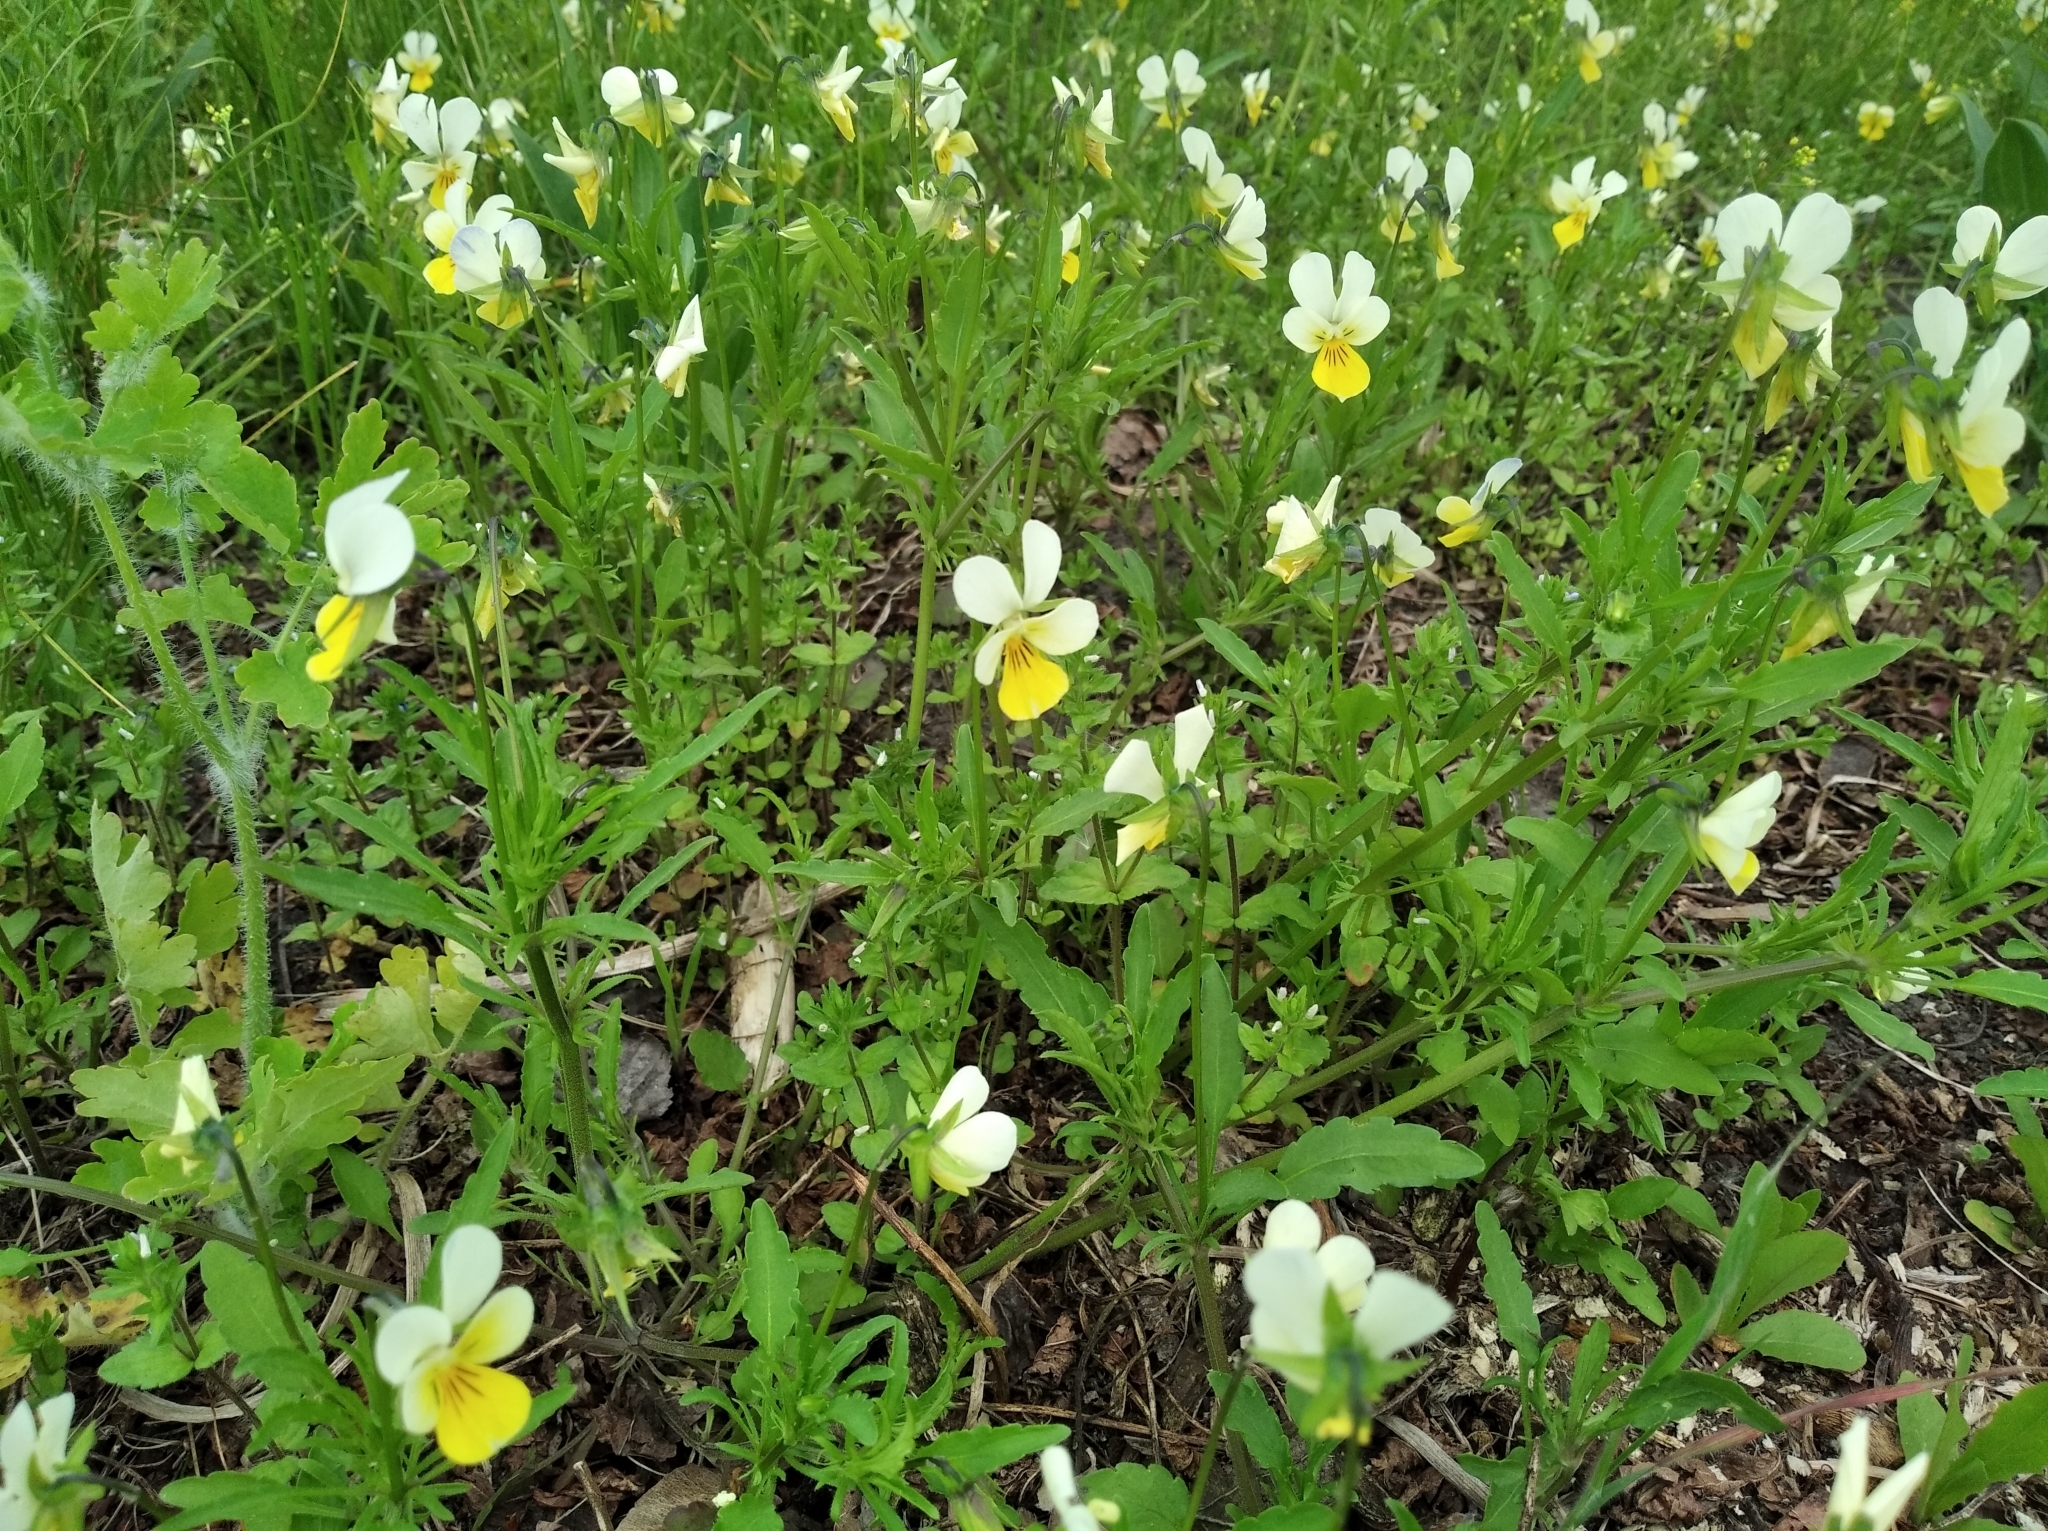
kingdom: Plantae
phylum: Tracheophyta
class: Magnoliopsida
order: Malpighiales
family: Violaceae
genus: Viola
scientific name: Viola tricolor
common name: Pansy
